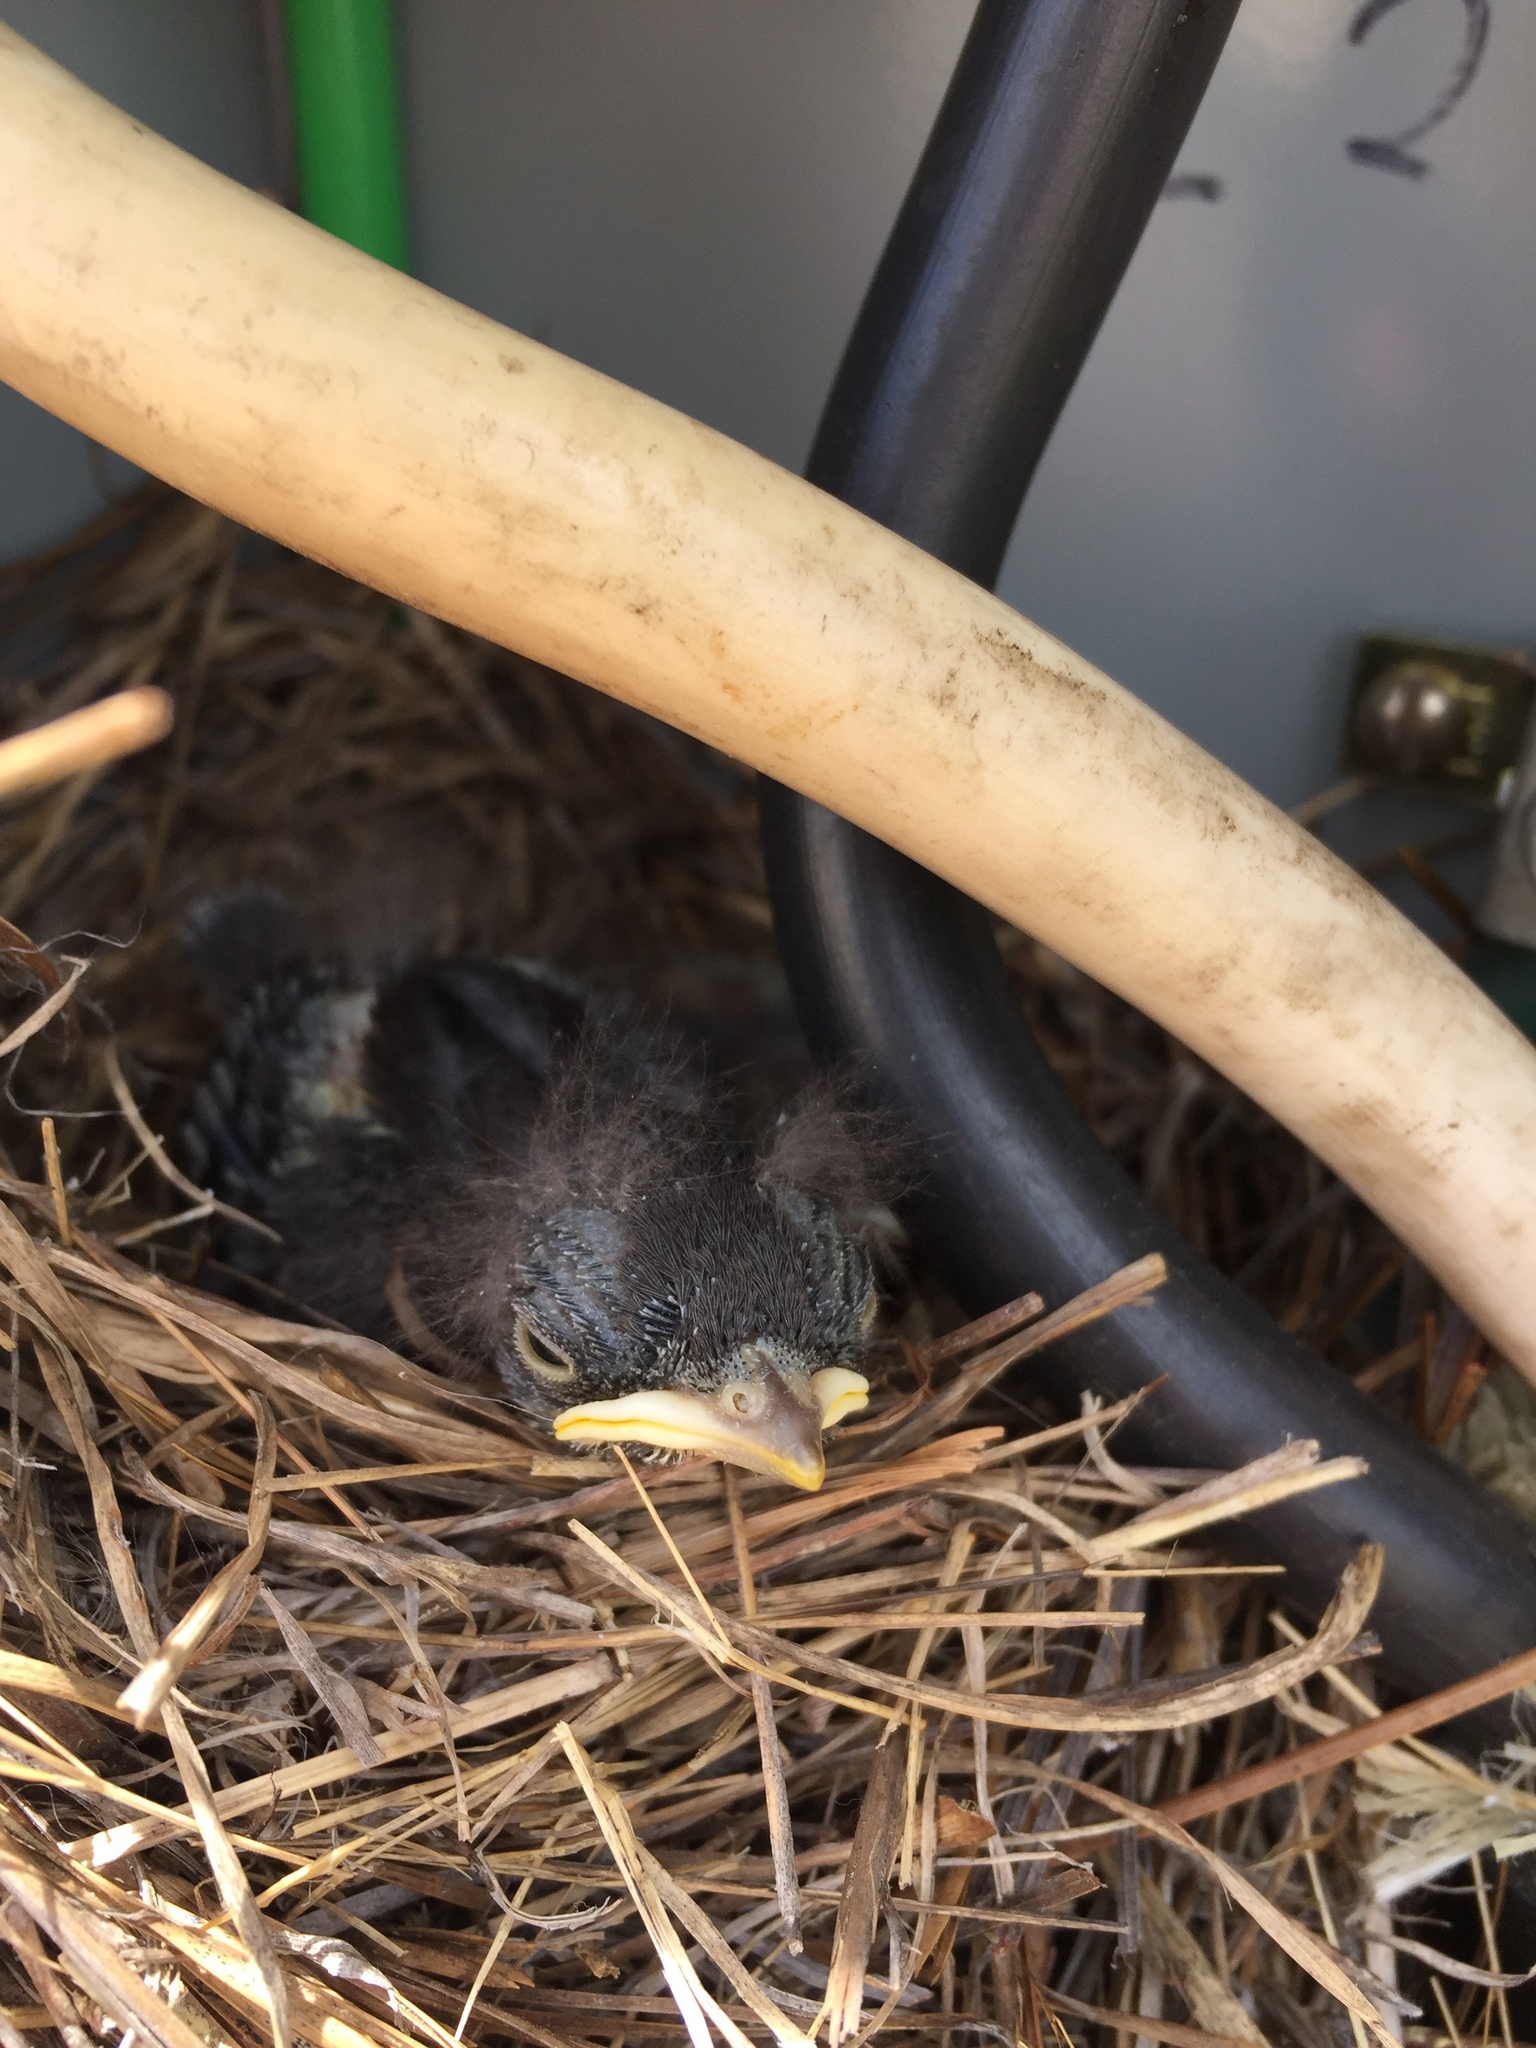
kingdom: Animalia
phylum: Chordata
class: Aves
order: Passeriformes
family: Mimidae
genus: Mimus
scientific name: Mimus polyglottos
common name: Northern mockingbird
